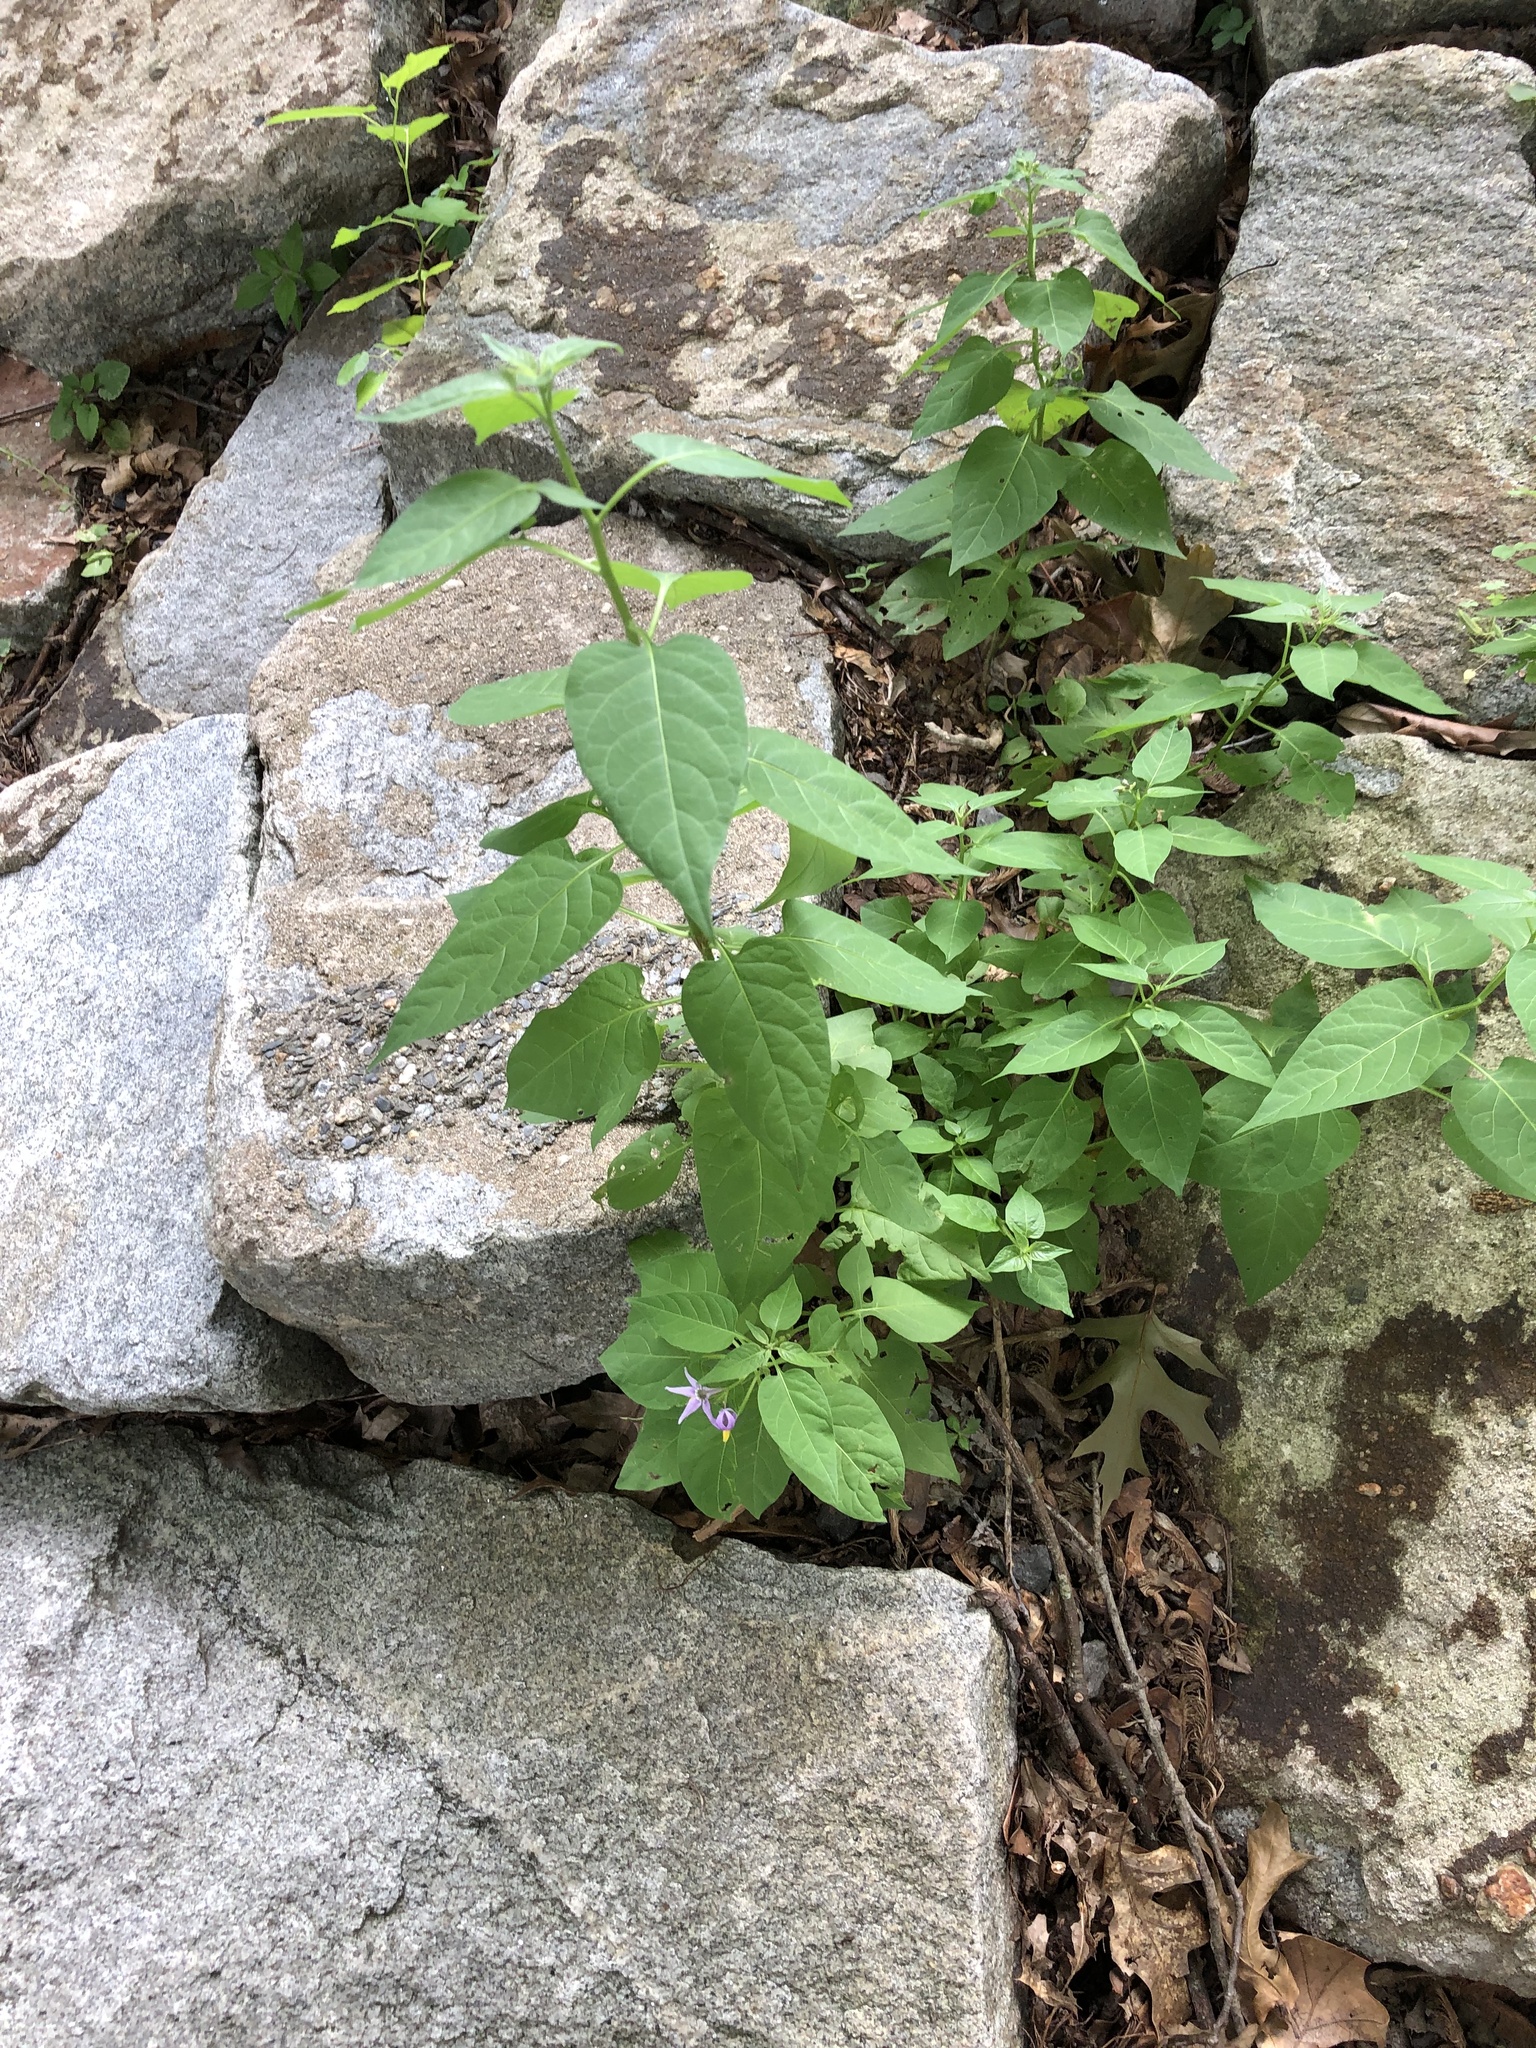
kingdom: Plantae
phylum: Tracheophyta
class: Magnoliopsida
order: Solanales
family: Solanaceae
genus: Solanum
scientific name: Solanum dulcamara
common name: Climbing nightshade
